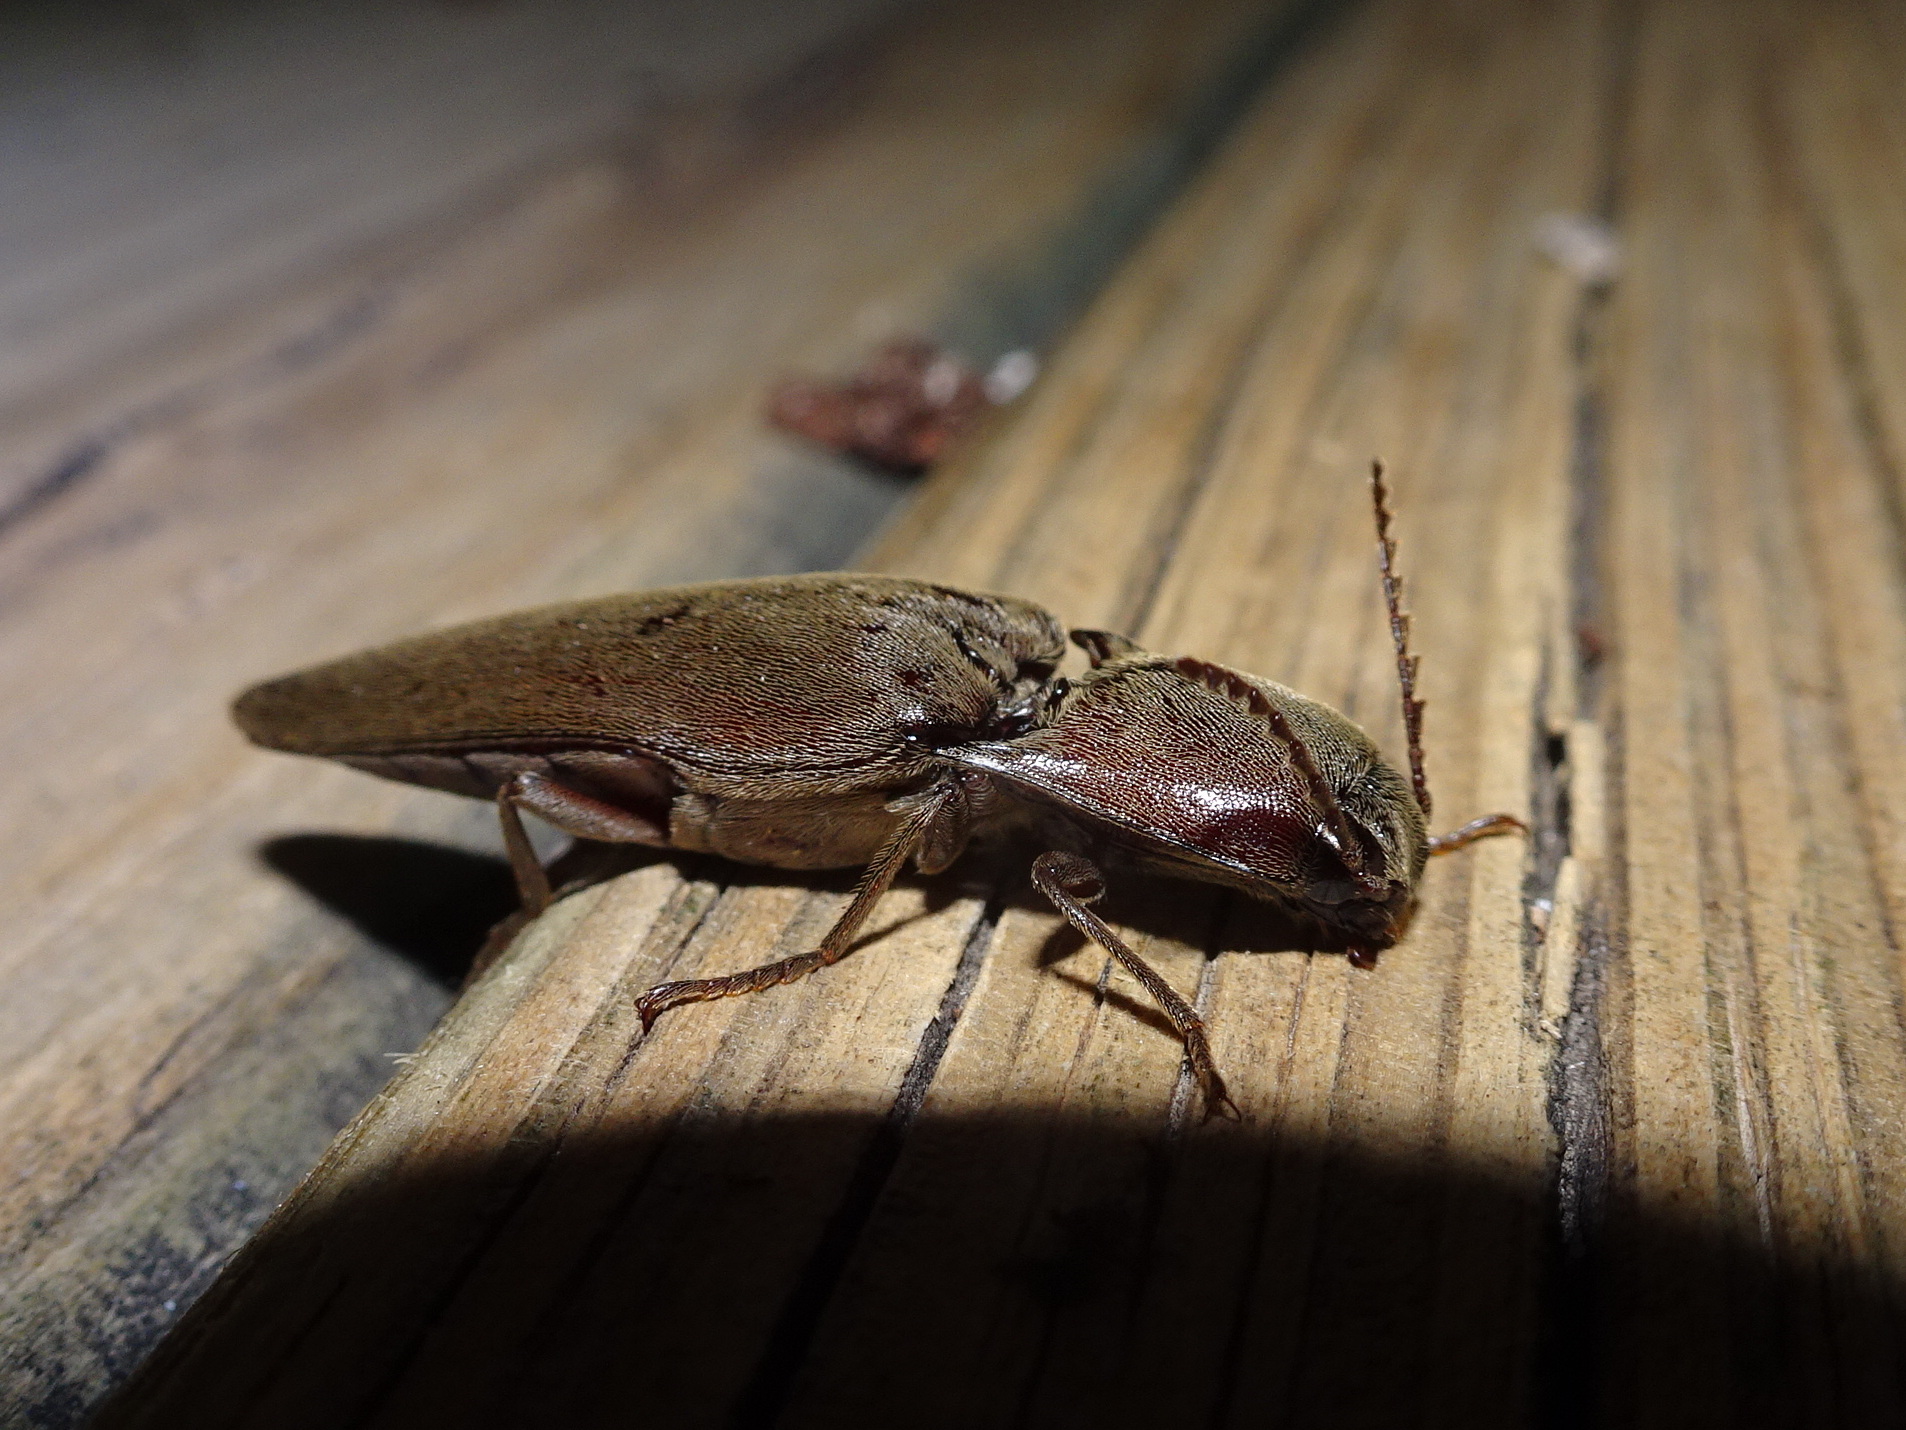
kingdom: Animalia
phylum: Arthropoda
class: Insecta
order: Coleoptera
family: Elateridae
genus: Orthostethus
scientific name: Orthostethus infuscatus
